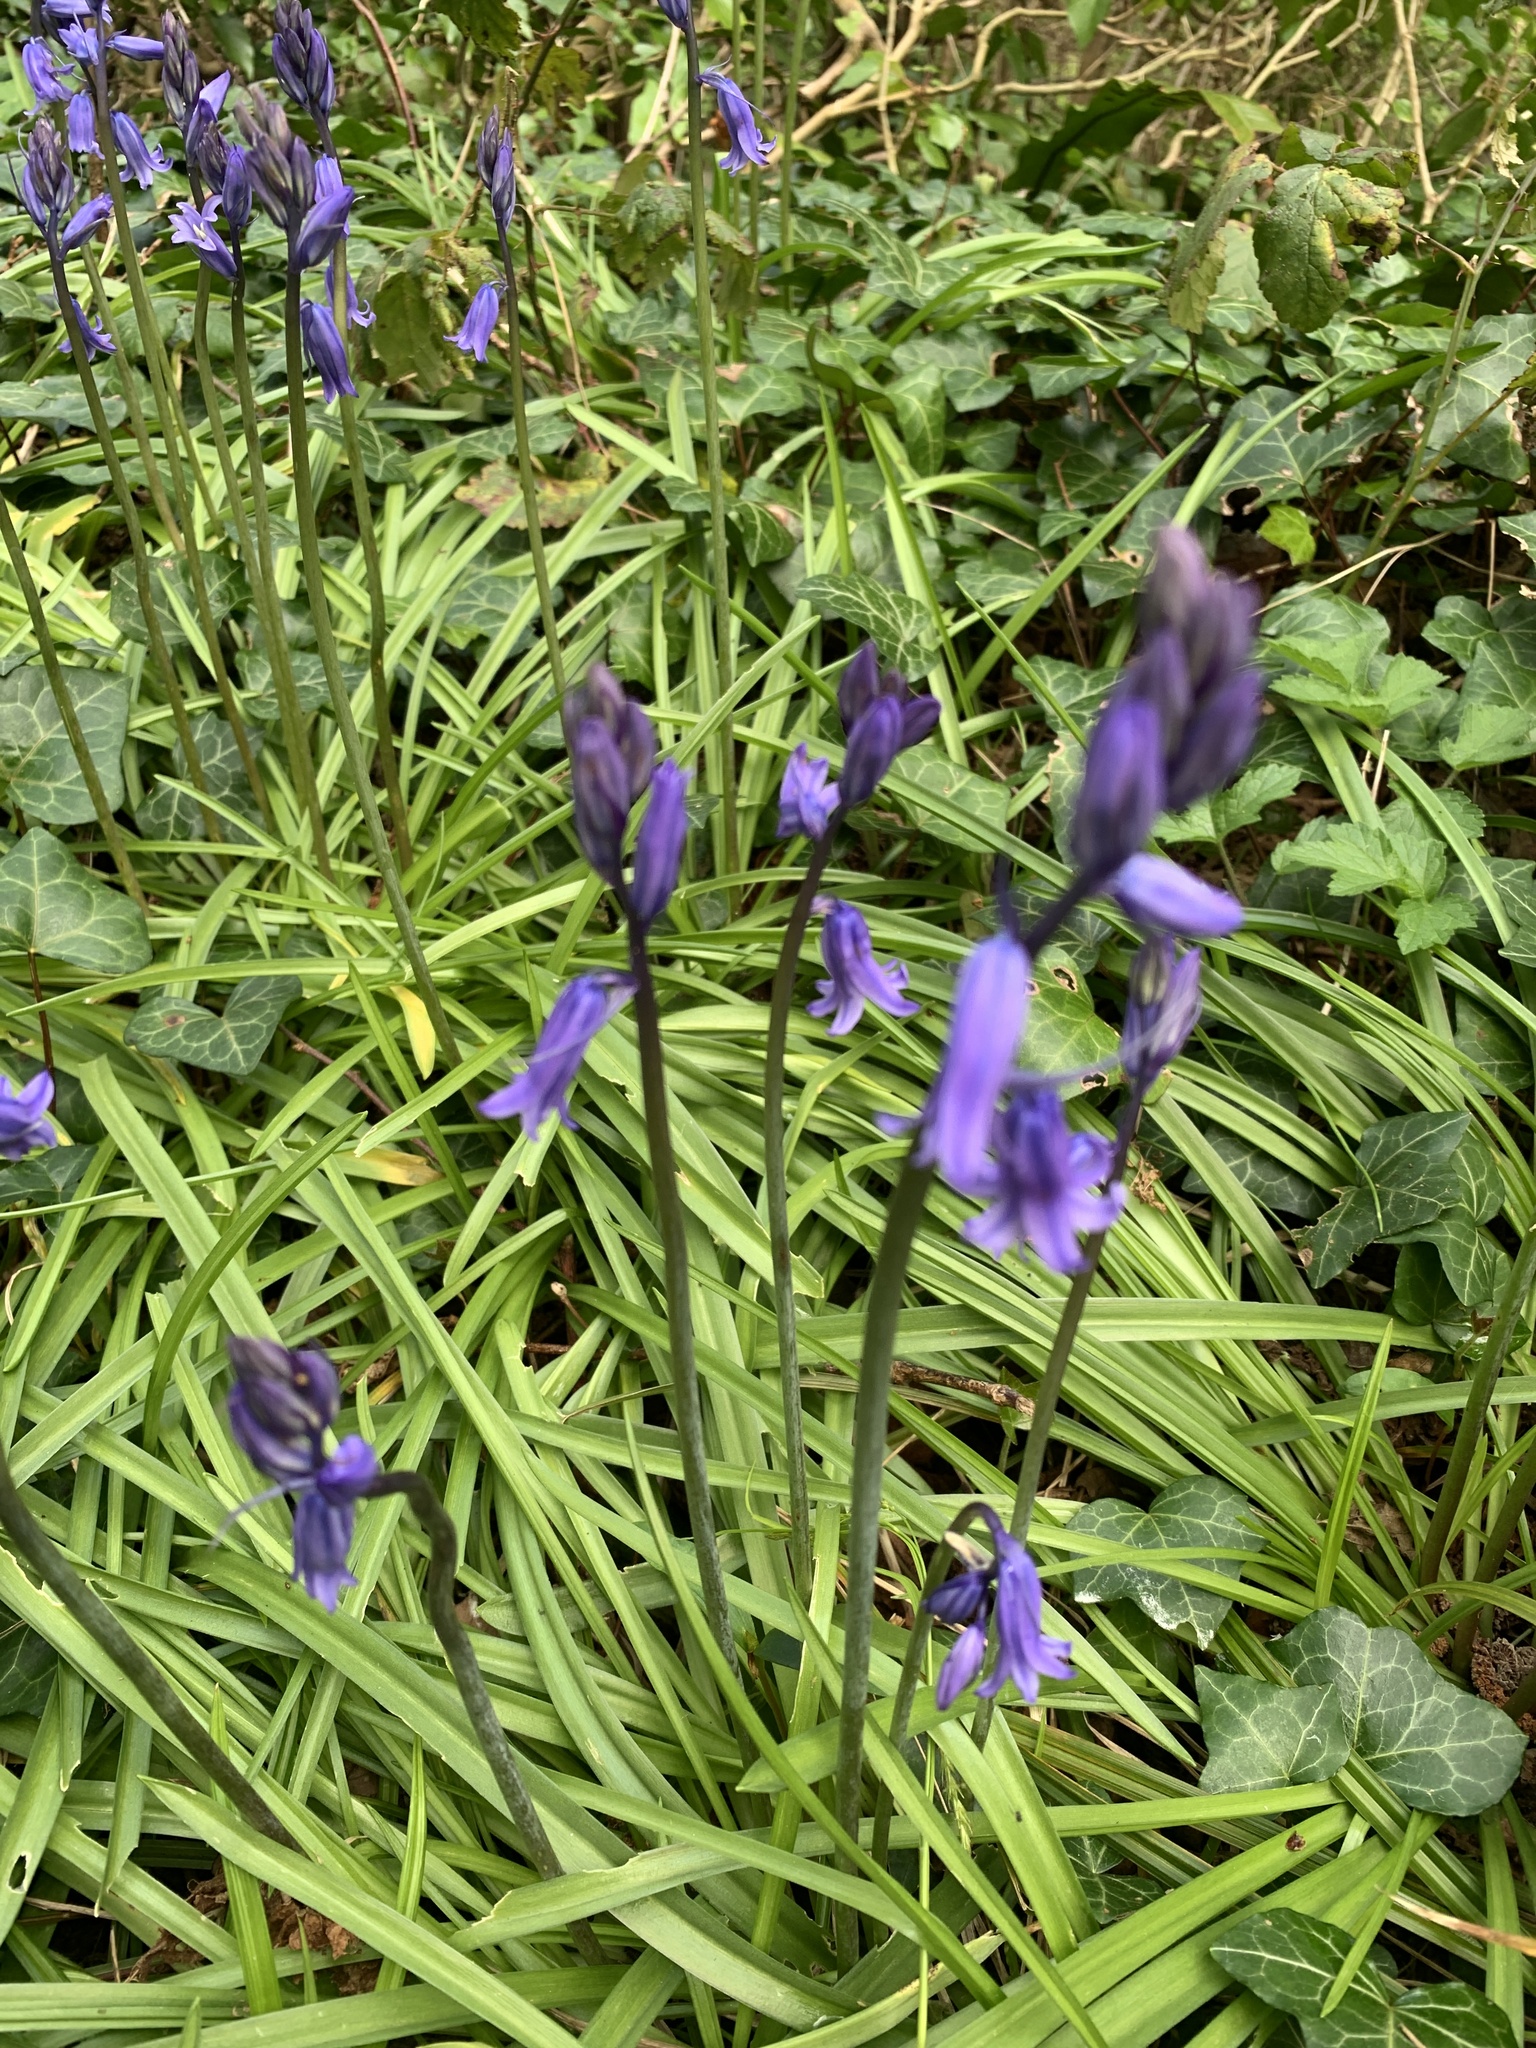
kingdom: Plantae
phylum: Tracheophyta
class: Liliopsida
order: Asparagales
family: Asparagaceae
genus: Hyacinthoides
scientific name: Hyacinthoides non-scripta
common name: Bluebell
